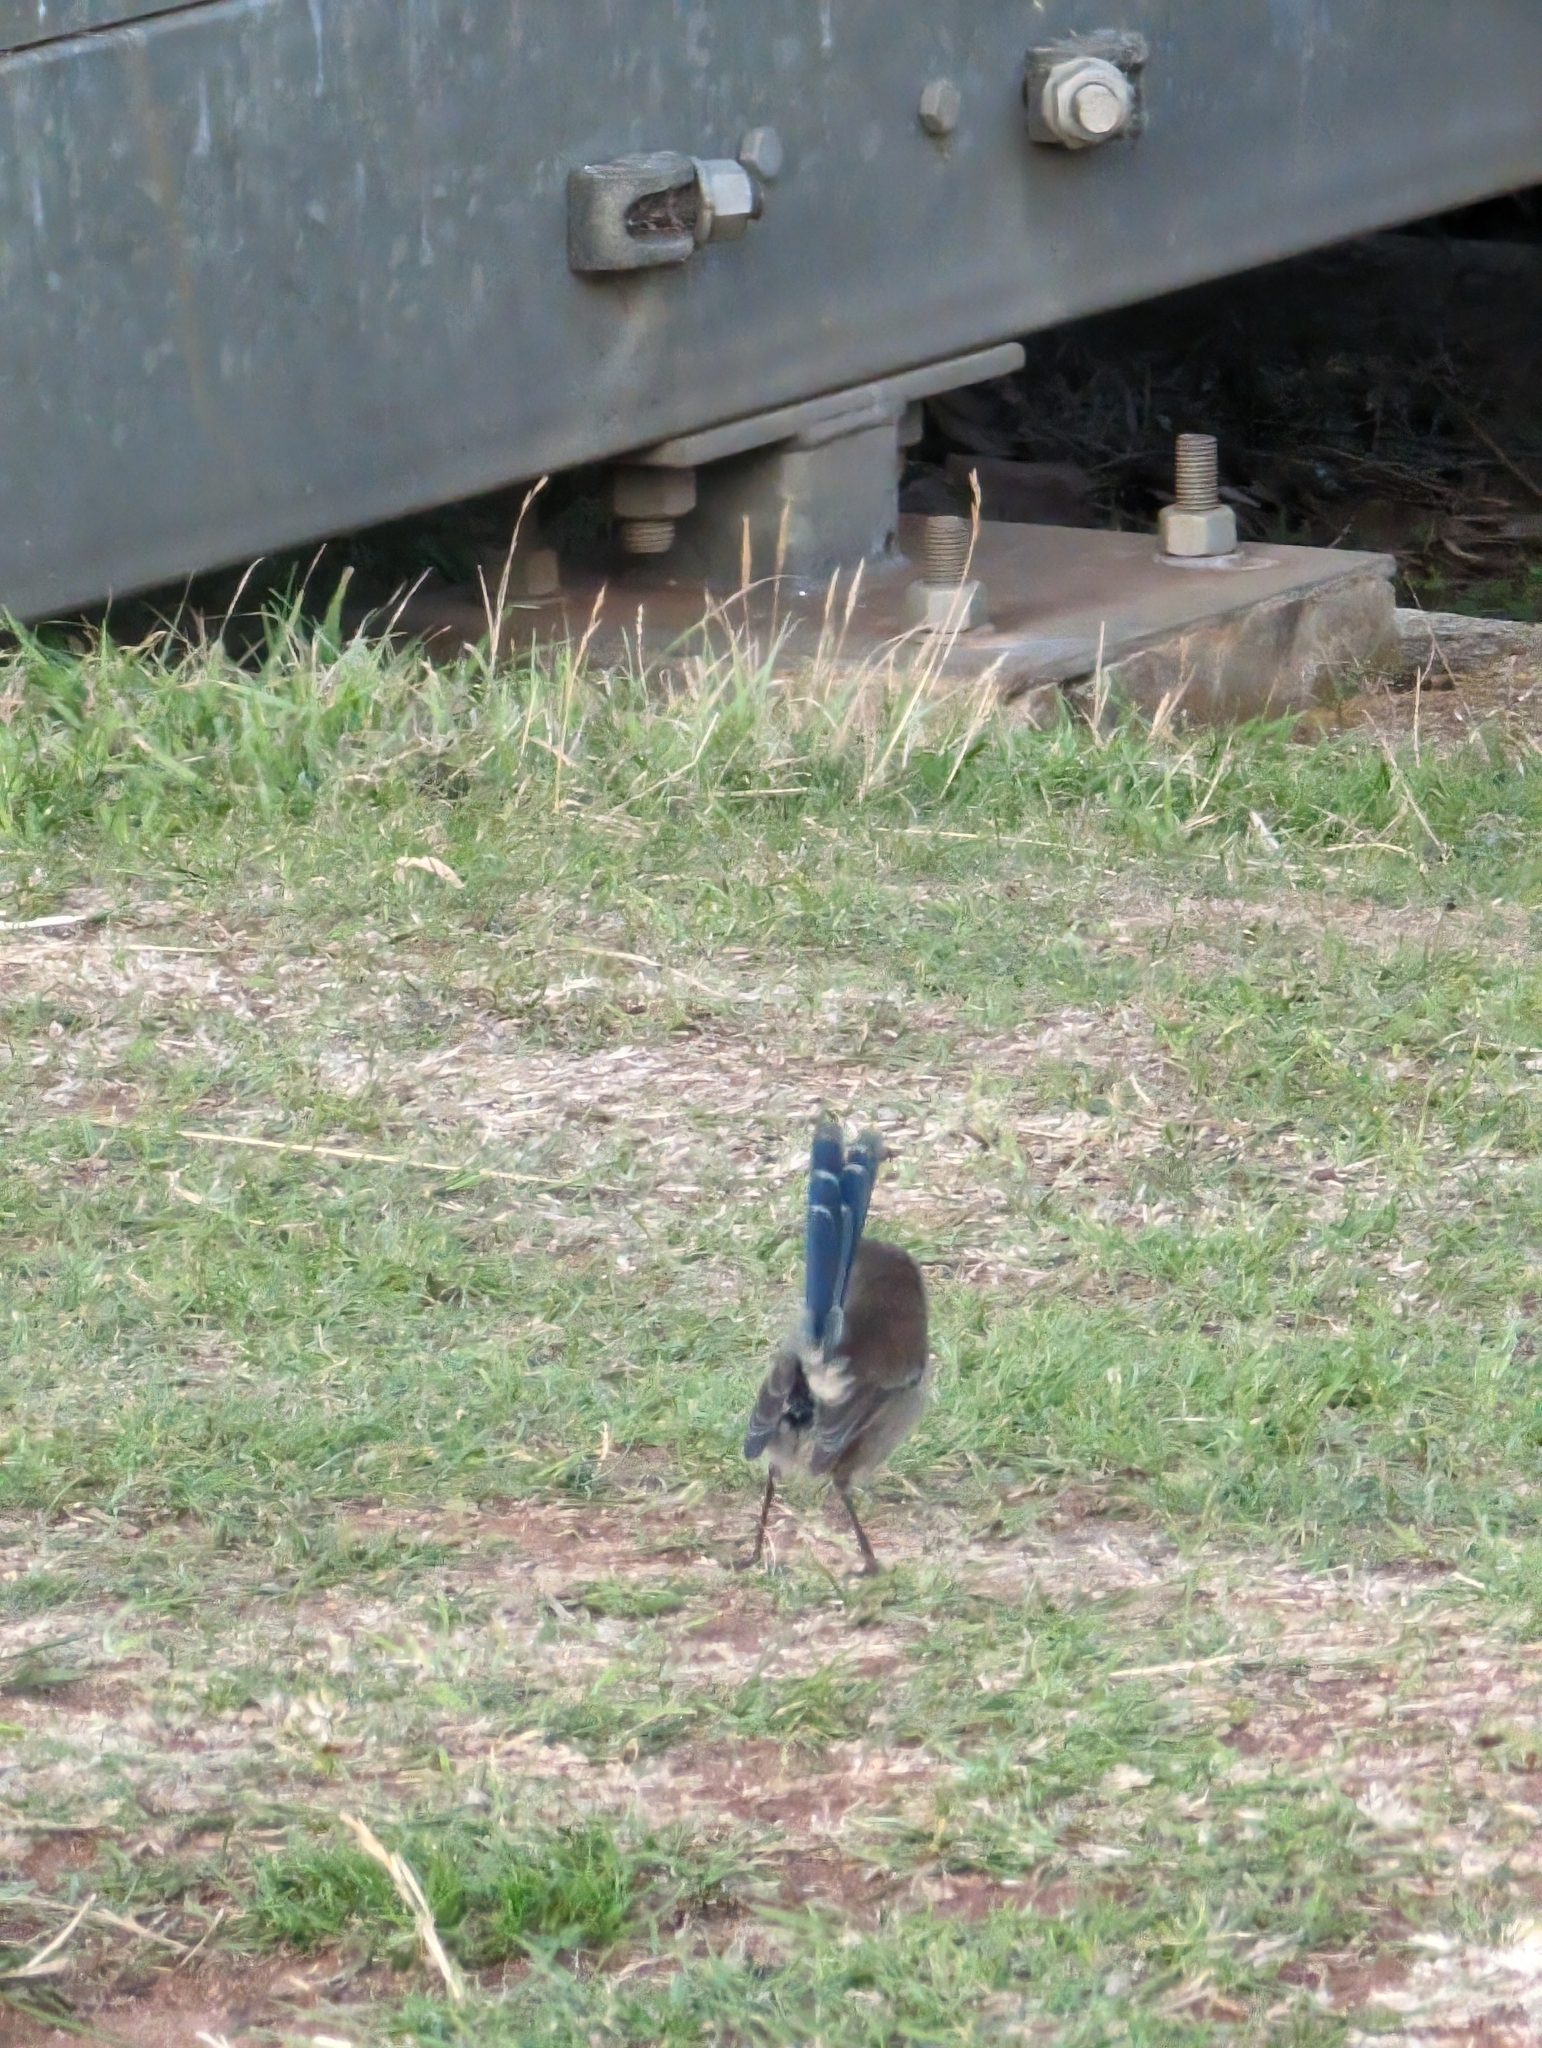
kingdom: Animalia
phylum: Chordata
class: Aves
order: Passeriformes
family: Maluridae
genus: Malurus
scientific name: Malurus cyaneus
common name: Superb fairywren
